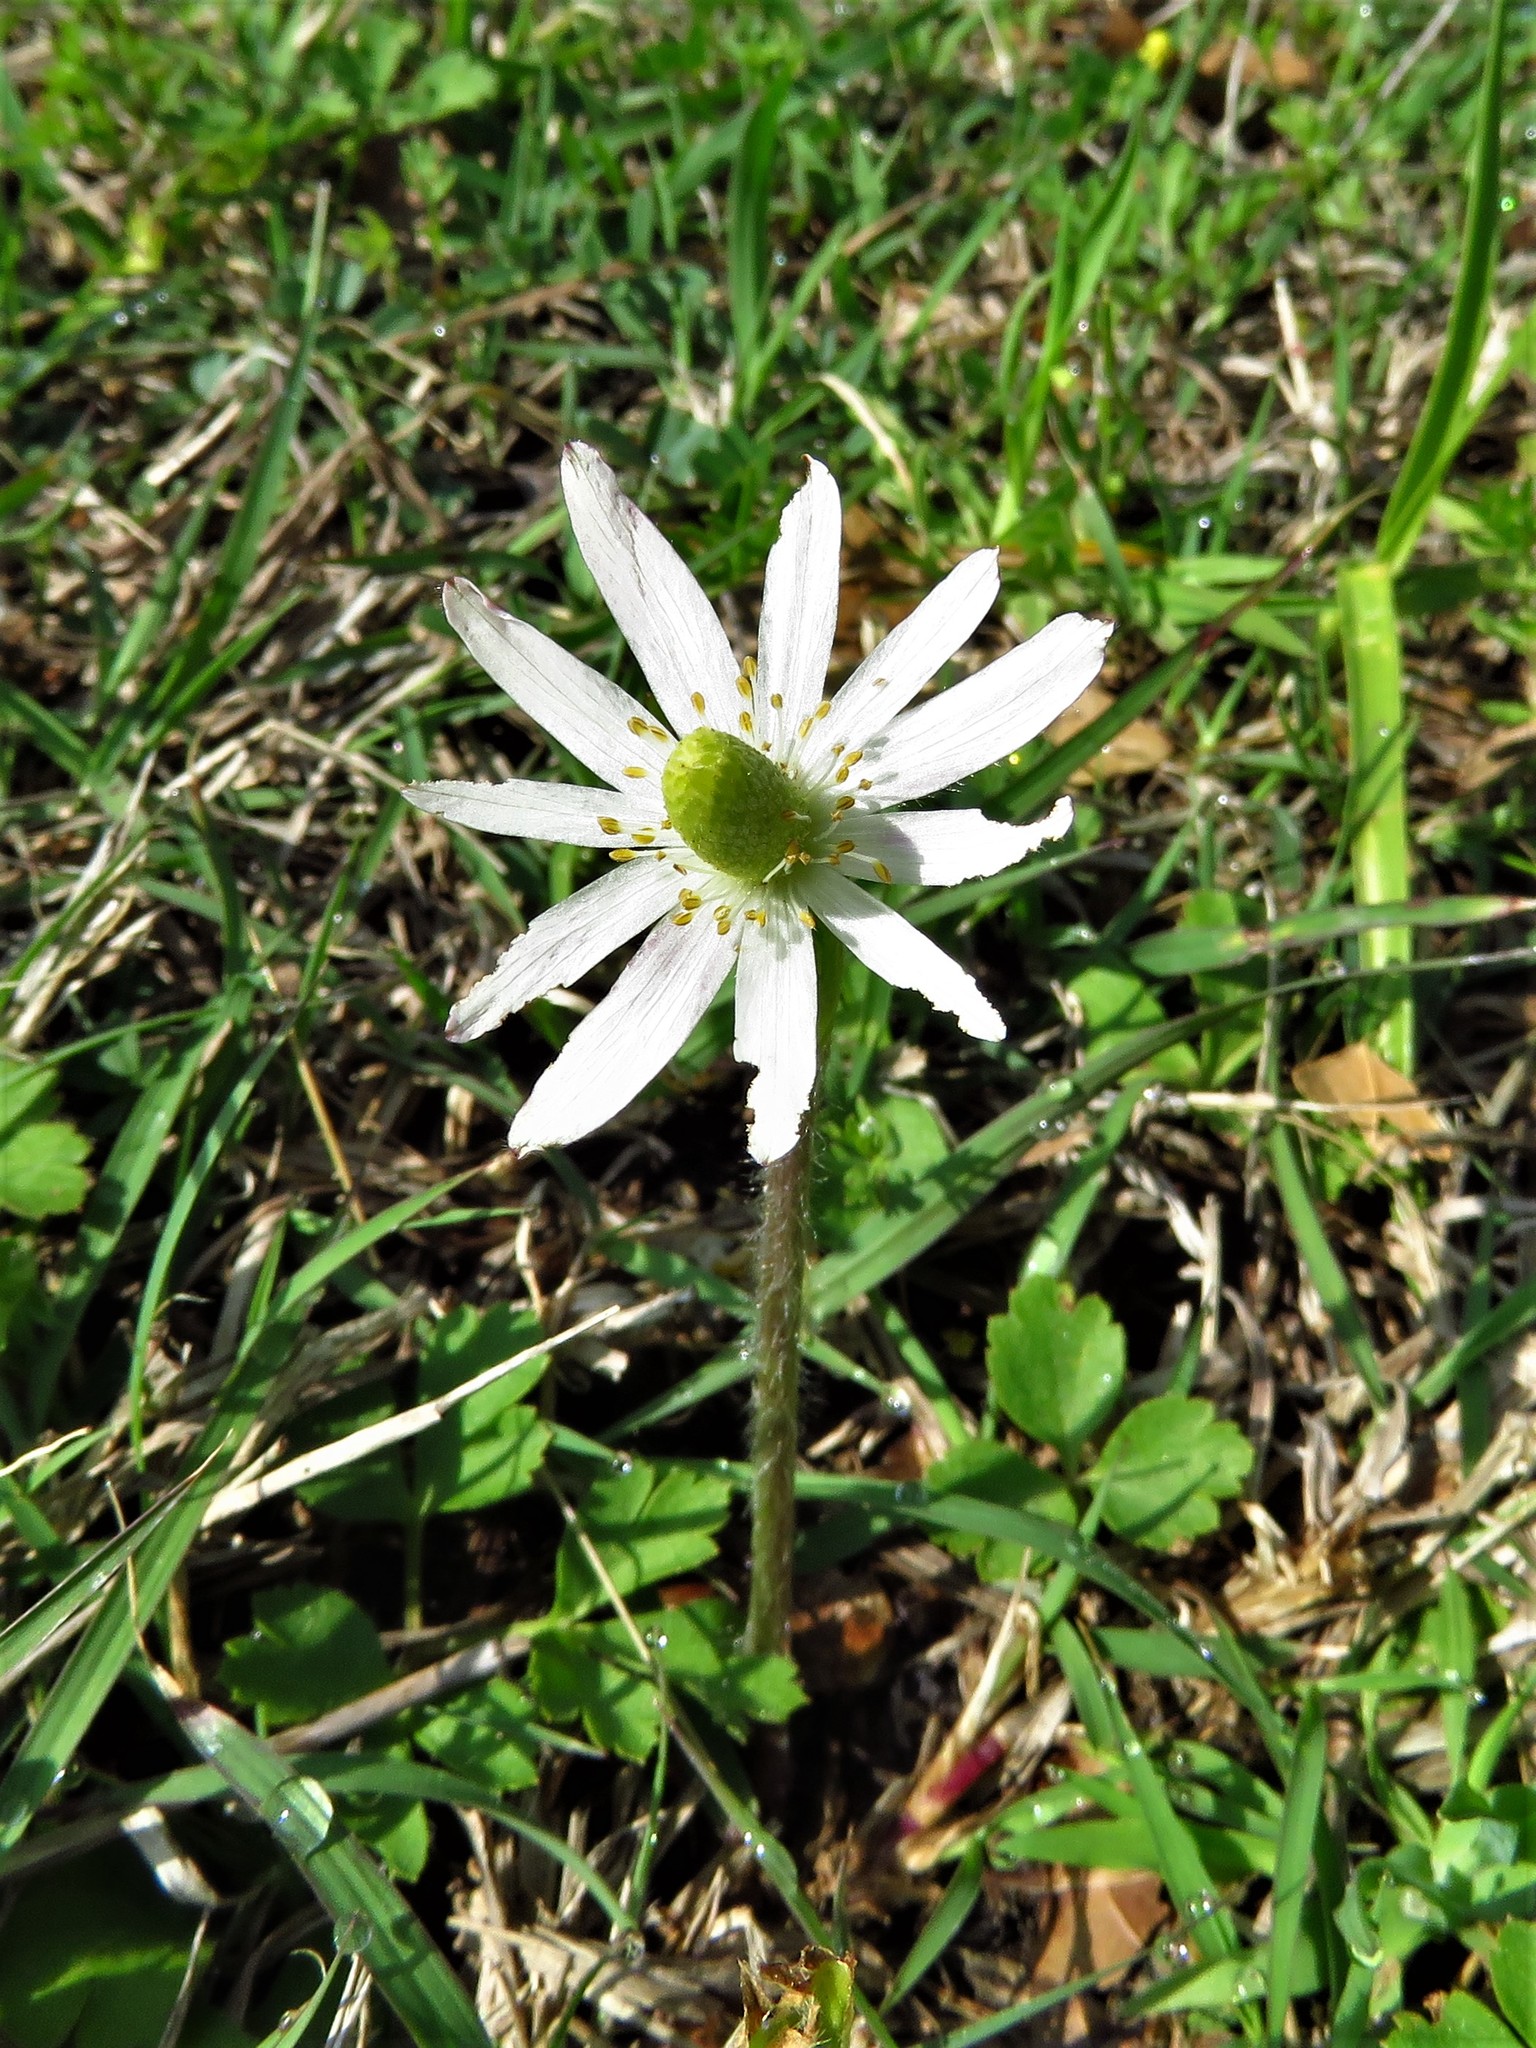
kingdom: Plantae
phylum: Tracheophyta
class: Magnoliopsida
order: Ranunculales
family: Ranunculaceae
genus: Anemone
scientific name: Anemone berlandieri
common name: Ten-petal anemone
